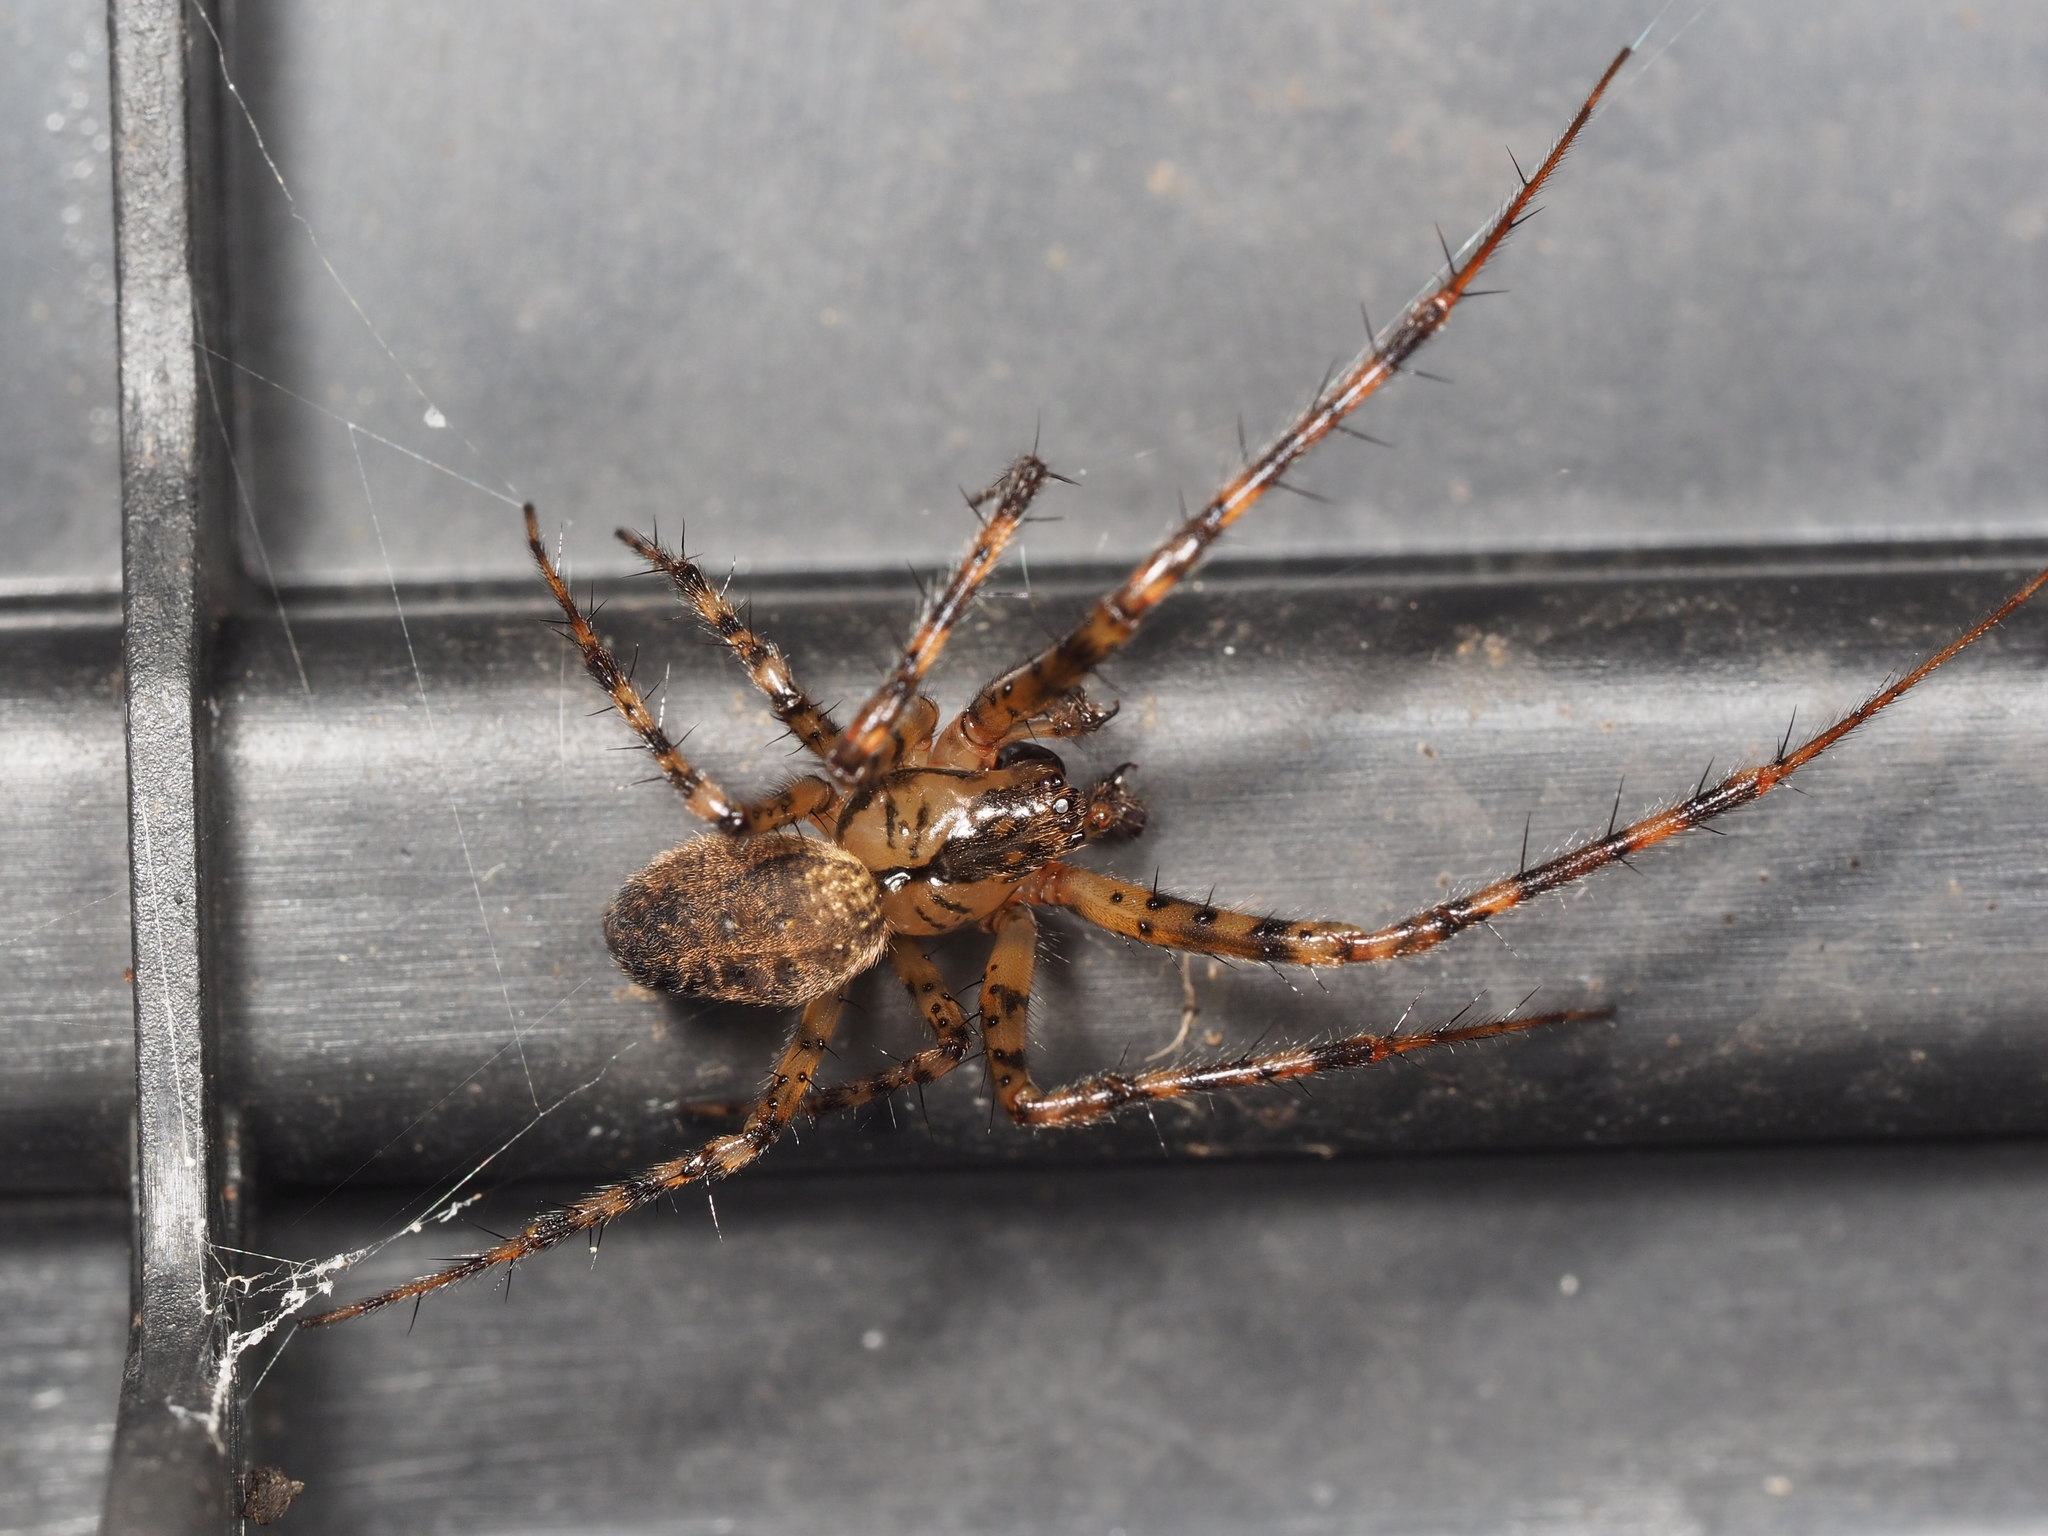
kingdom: Animalia
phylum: Arthropoda
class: Arachnida
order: Araneae
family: Tetragnathidae
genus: Metellina
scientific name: Metellina merianae
